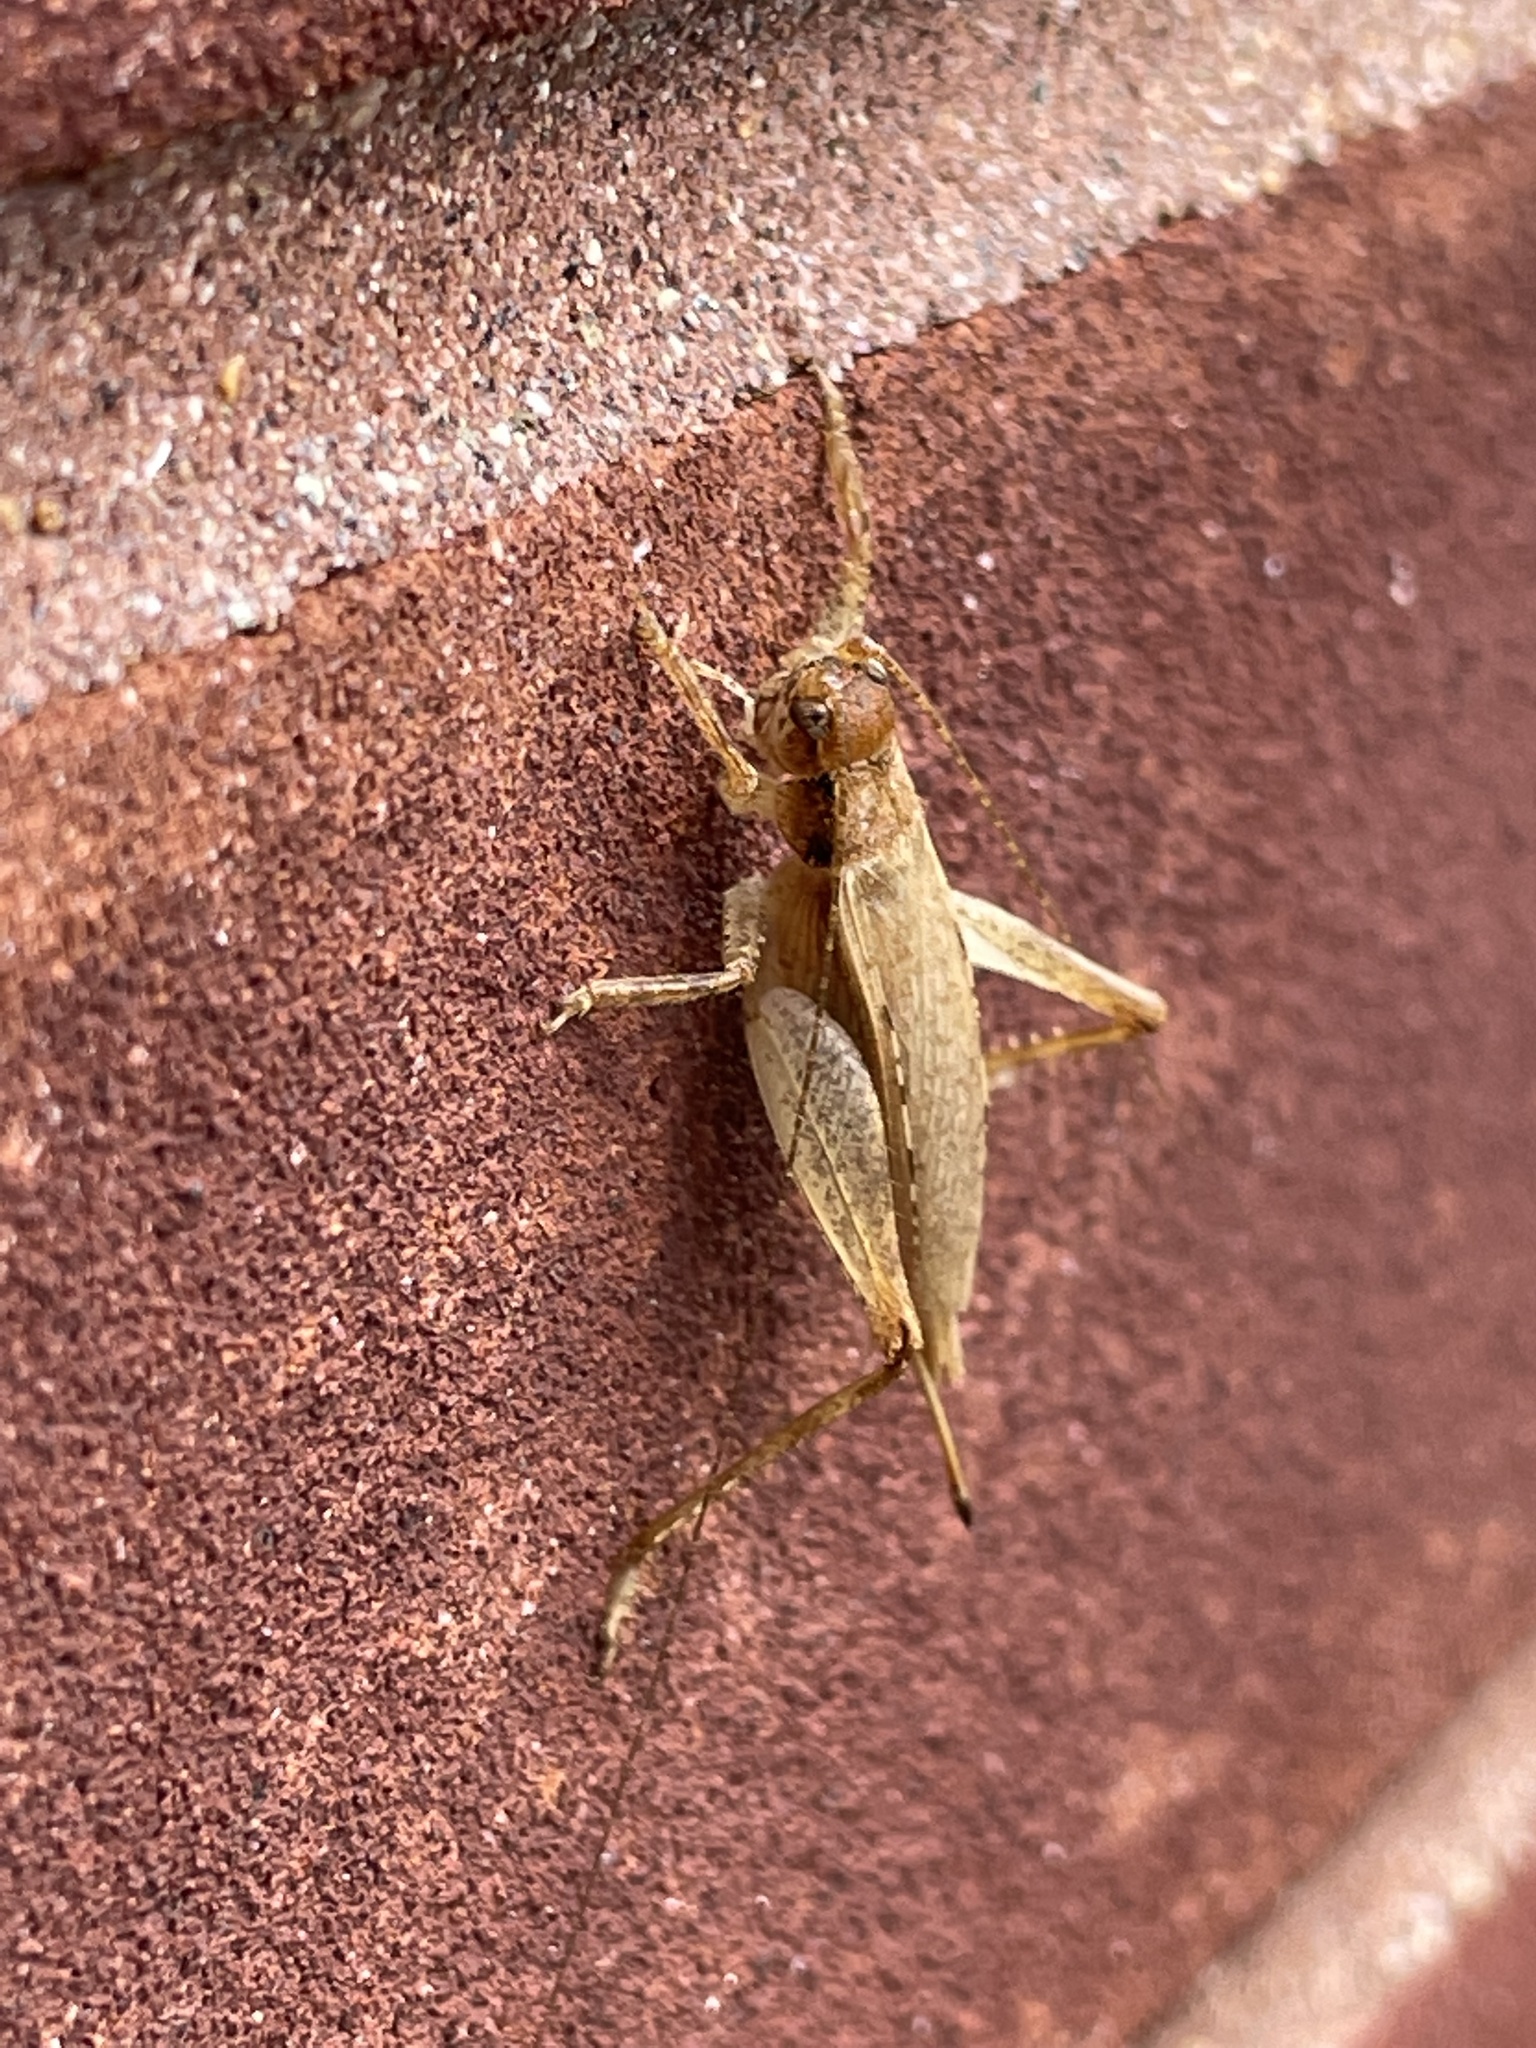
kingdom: Animalia
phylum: Arthropoda
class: Insecta
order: Orthoptera
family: Gryllidae
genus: Hapithus
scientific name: Hapithus saltator
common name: Jumping bush cricket
